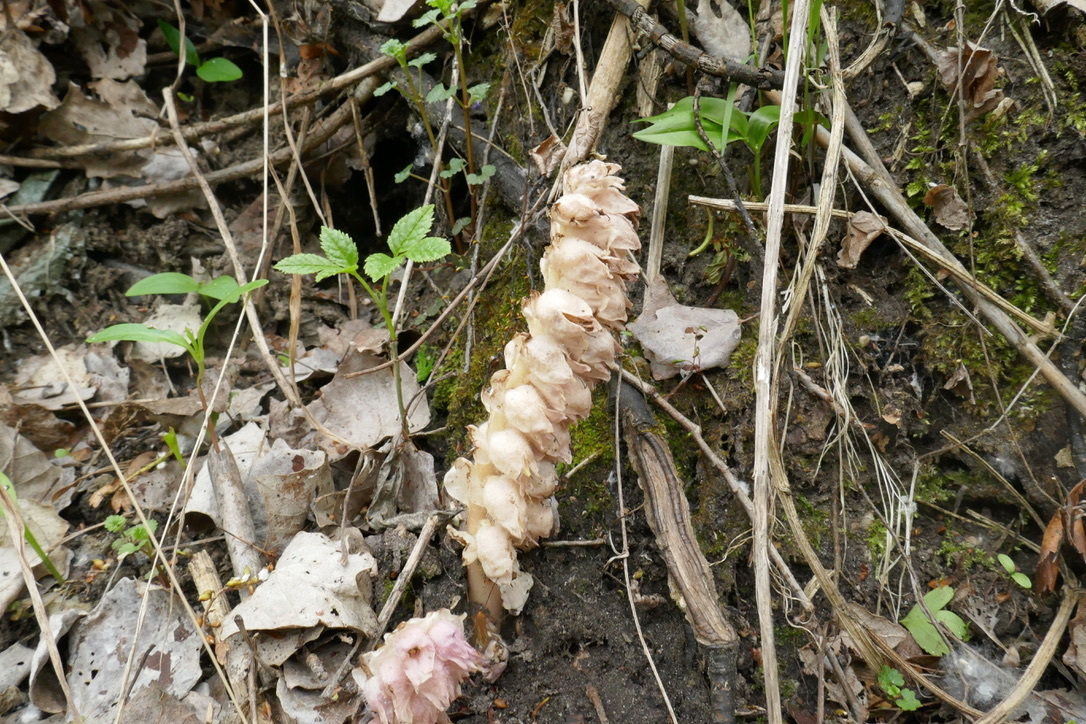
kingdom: Plantae
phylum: Tracheophyta
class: Magnoliopsida
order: Lamiales
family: Orobanchaceae
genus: Lathraea
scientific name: Lathraea squamaria
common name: Toothwort
